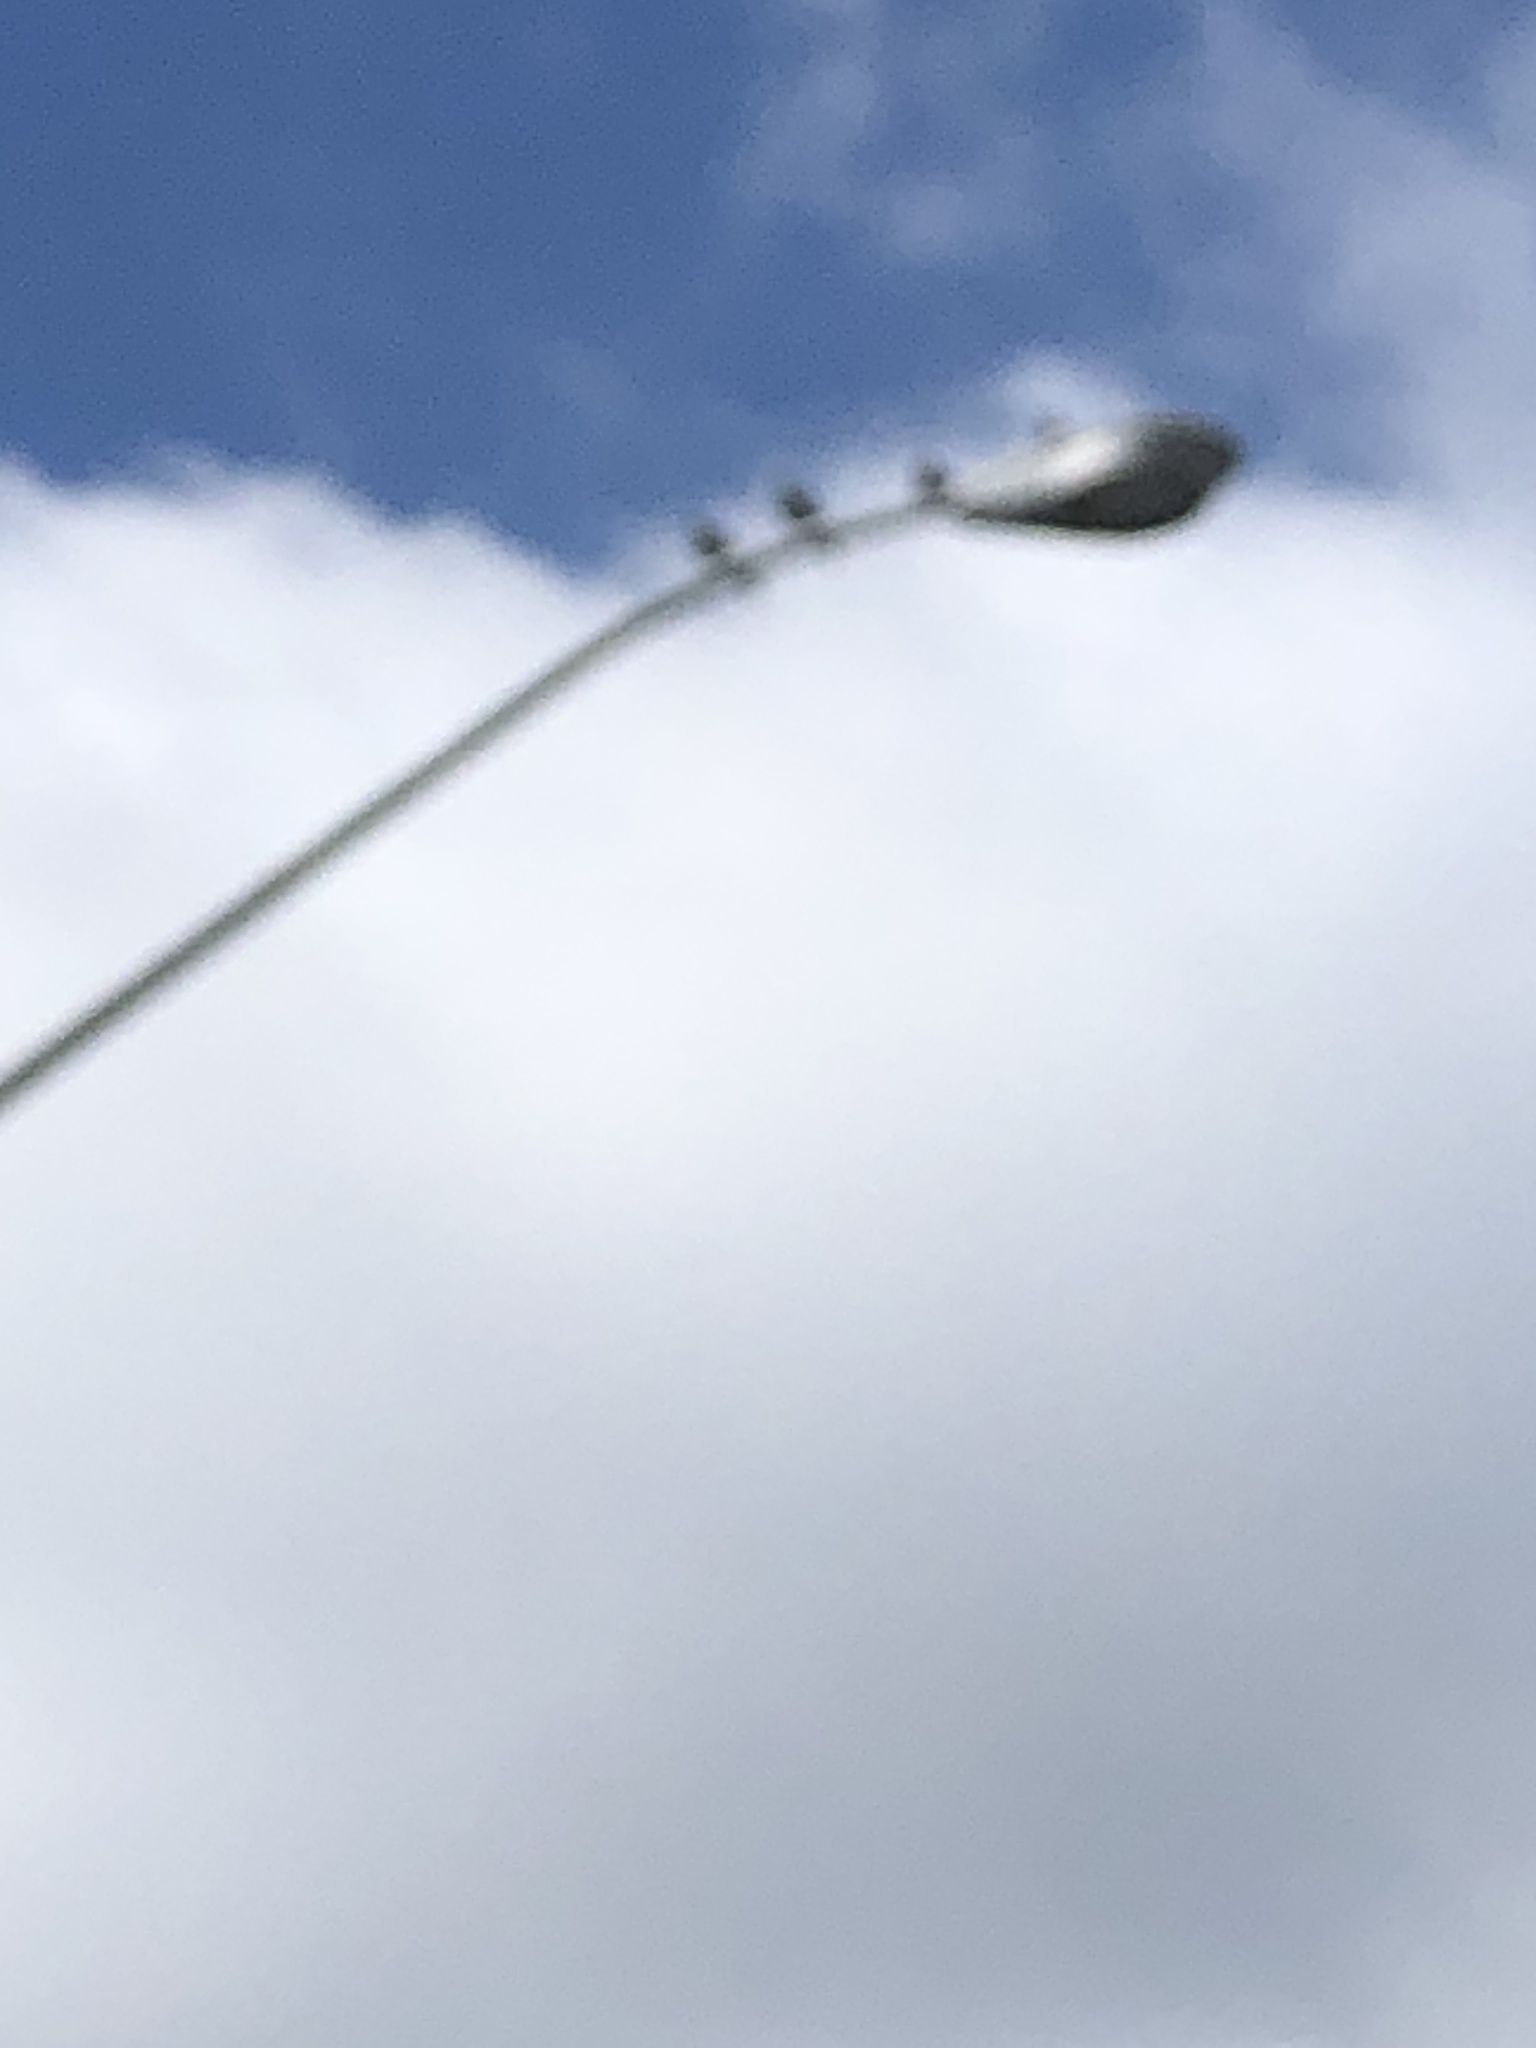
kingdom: Animalia
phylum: Chordata
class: Aves
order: Columbiformes
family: Columbidae
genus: Columba
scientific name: Columba livia
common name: Rock pigeon
